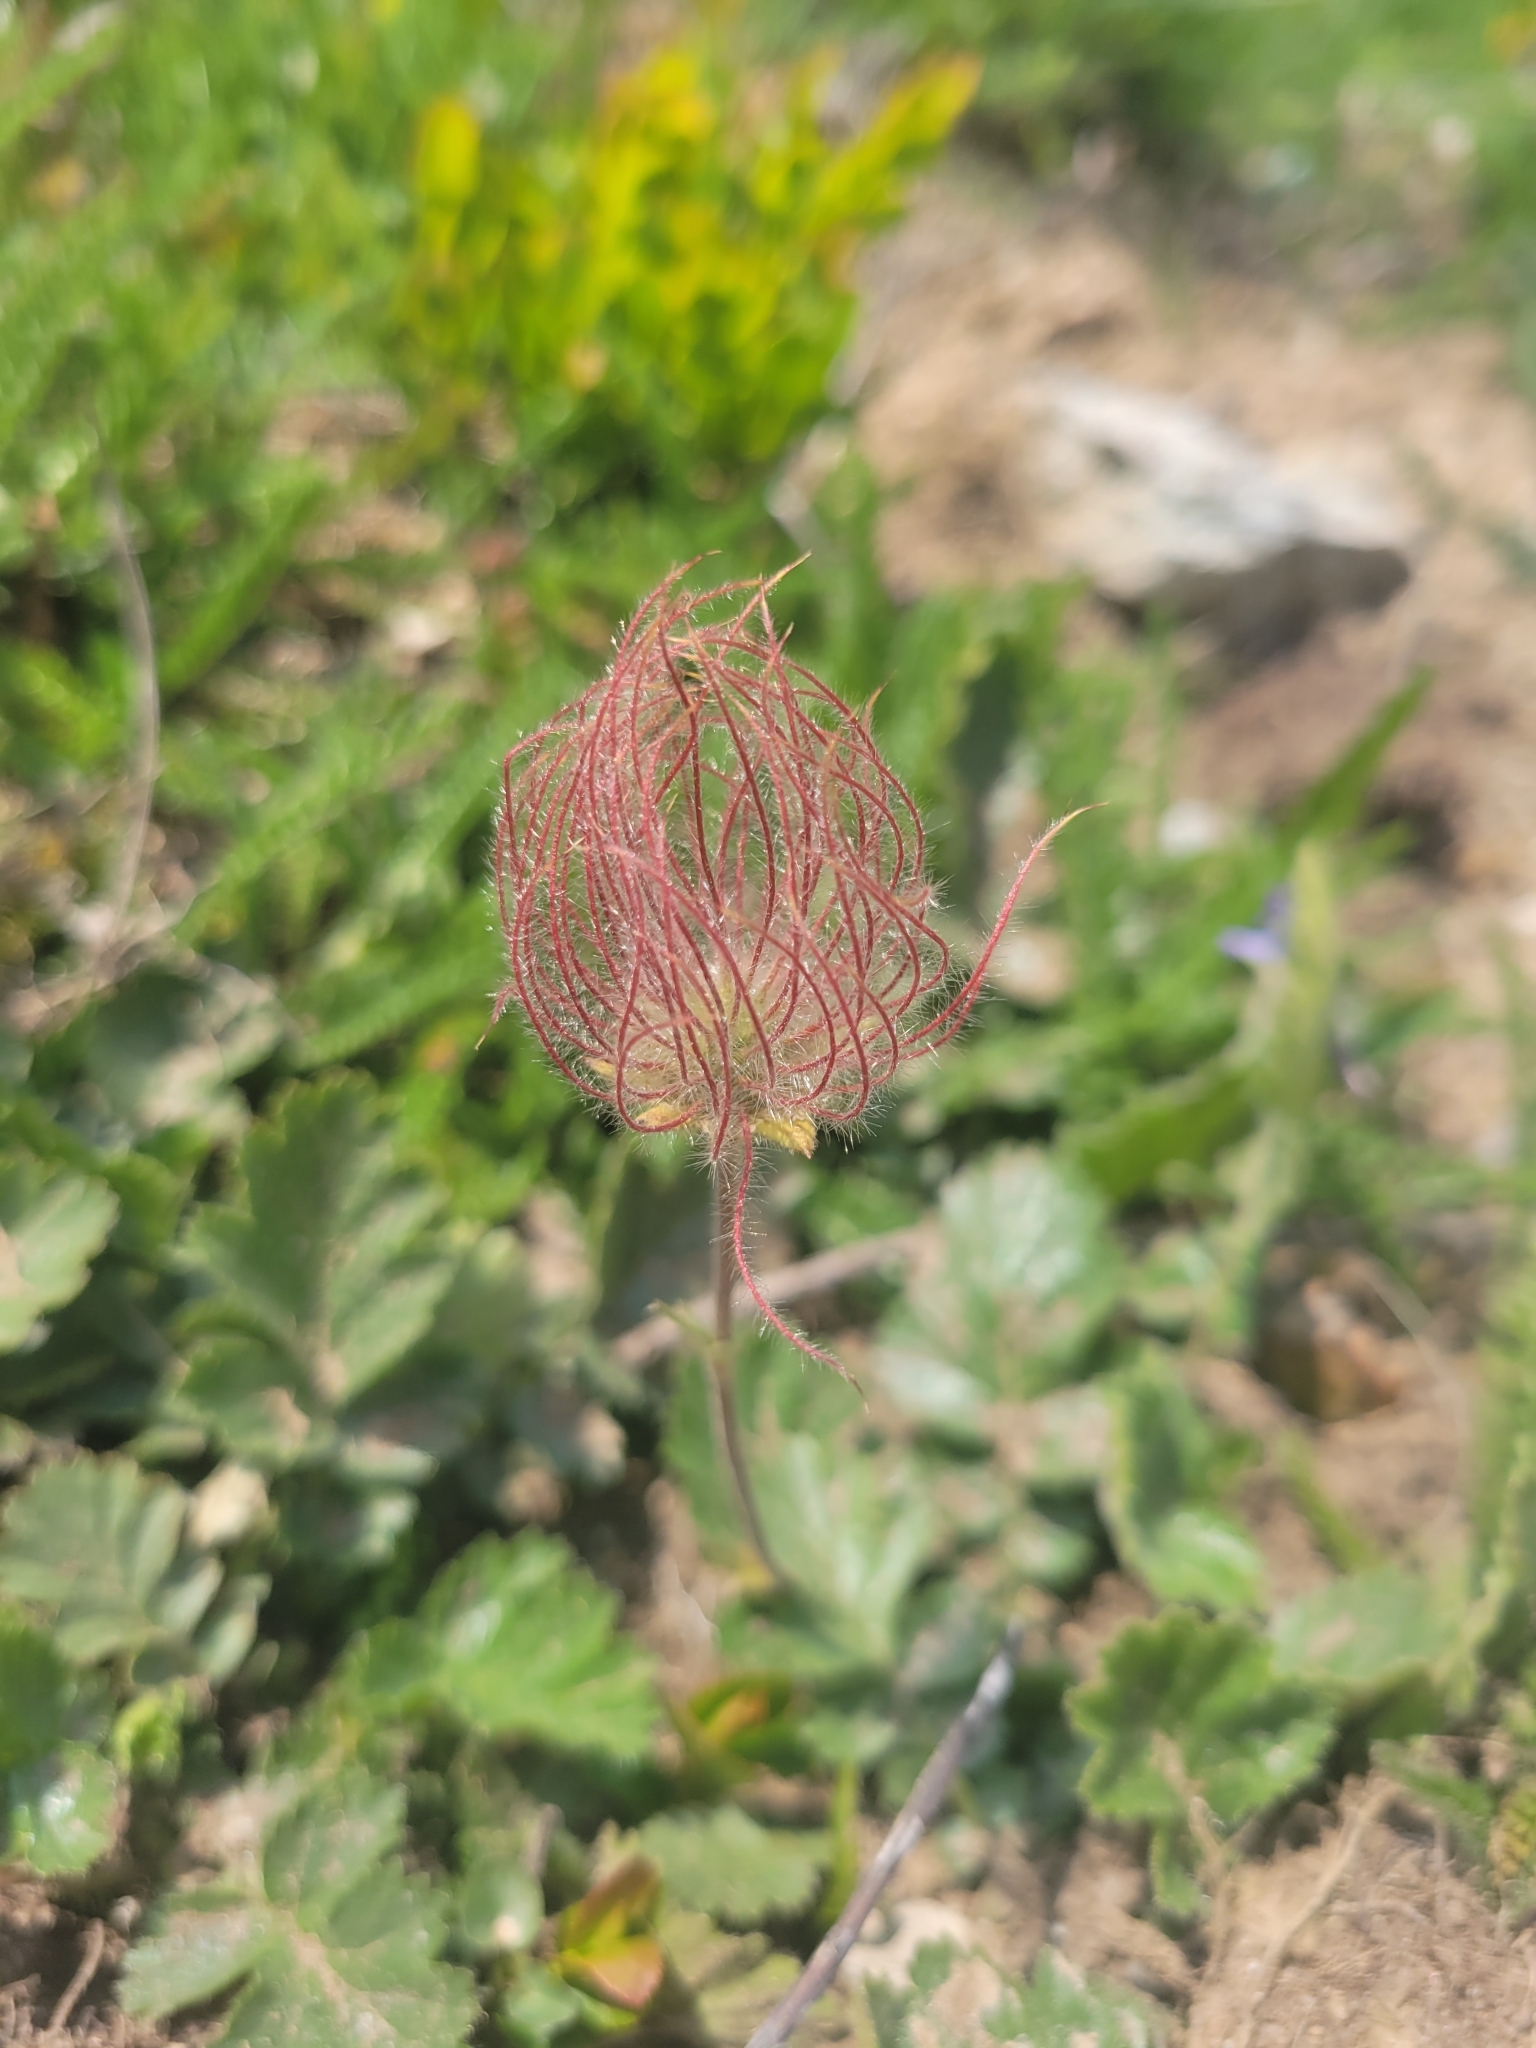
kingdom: Plantae
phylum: Tracheophyta
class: Magnoliopsida
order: Rosales
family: Rosaceae
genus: Geum
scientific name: Geum montanum
